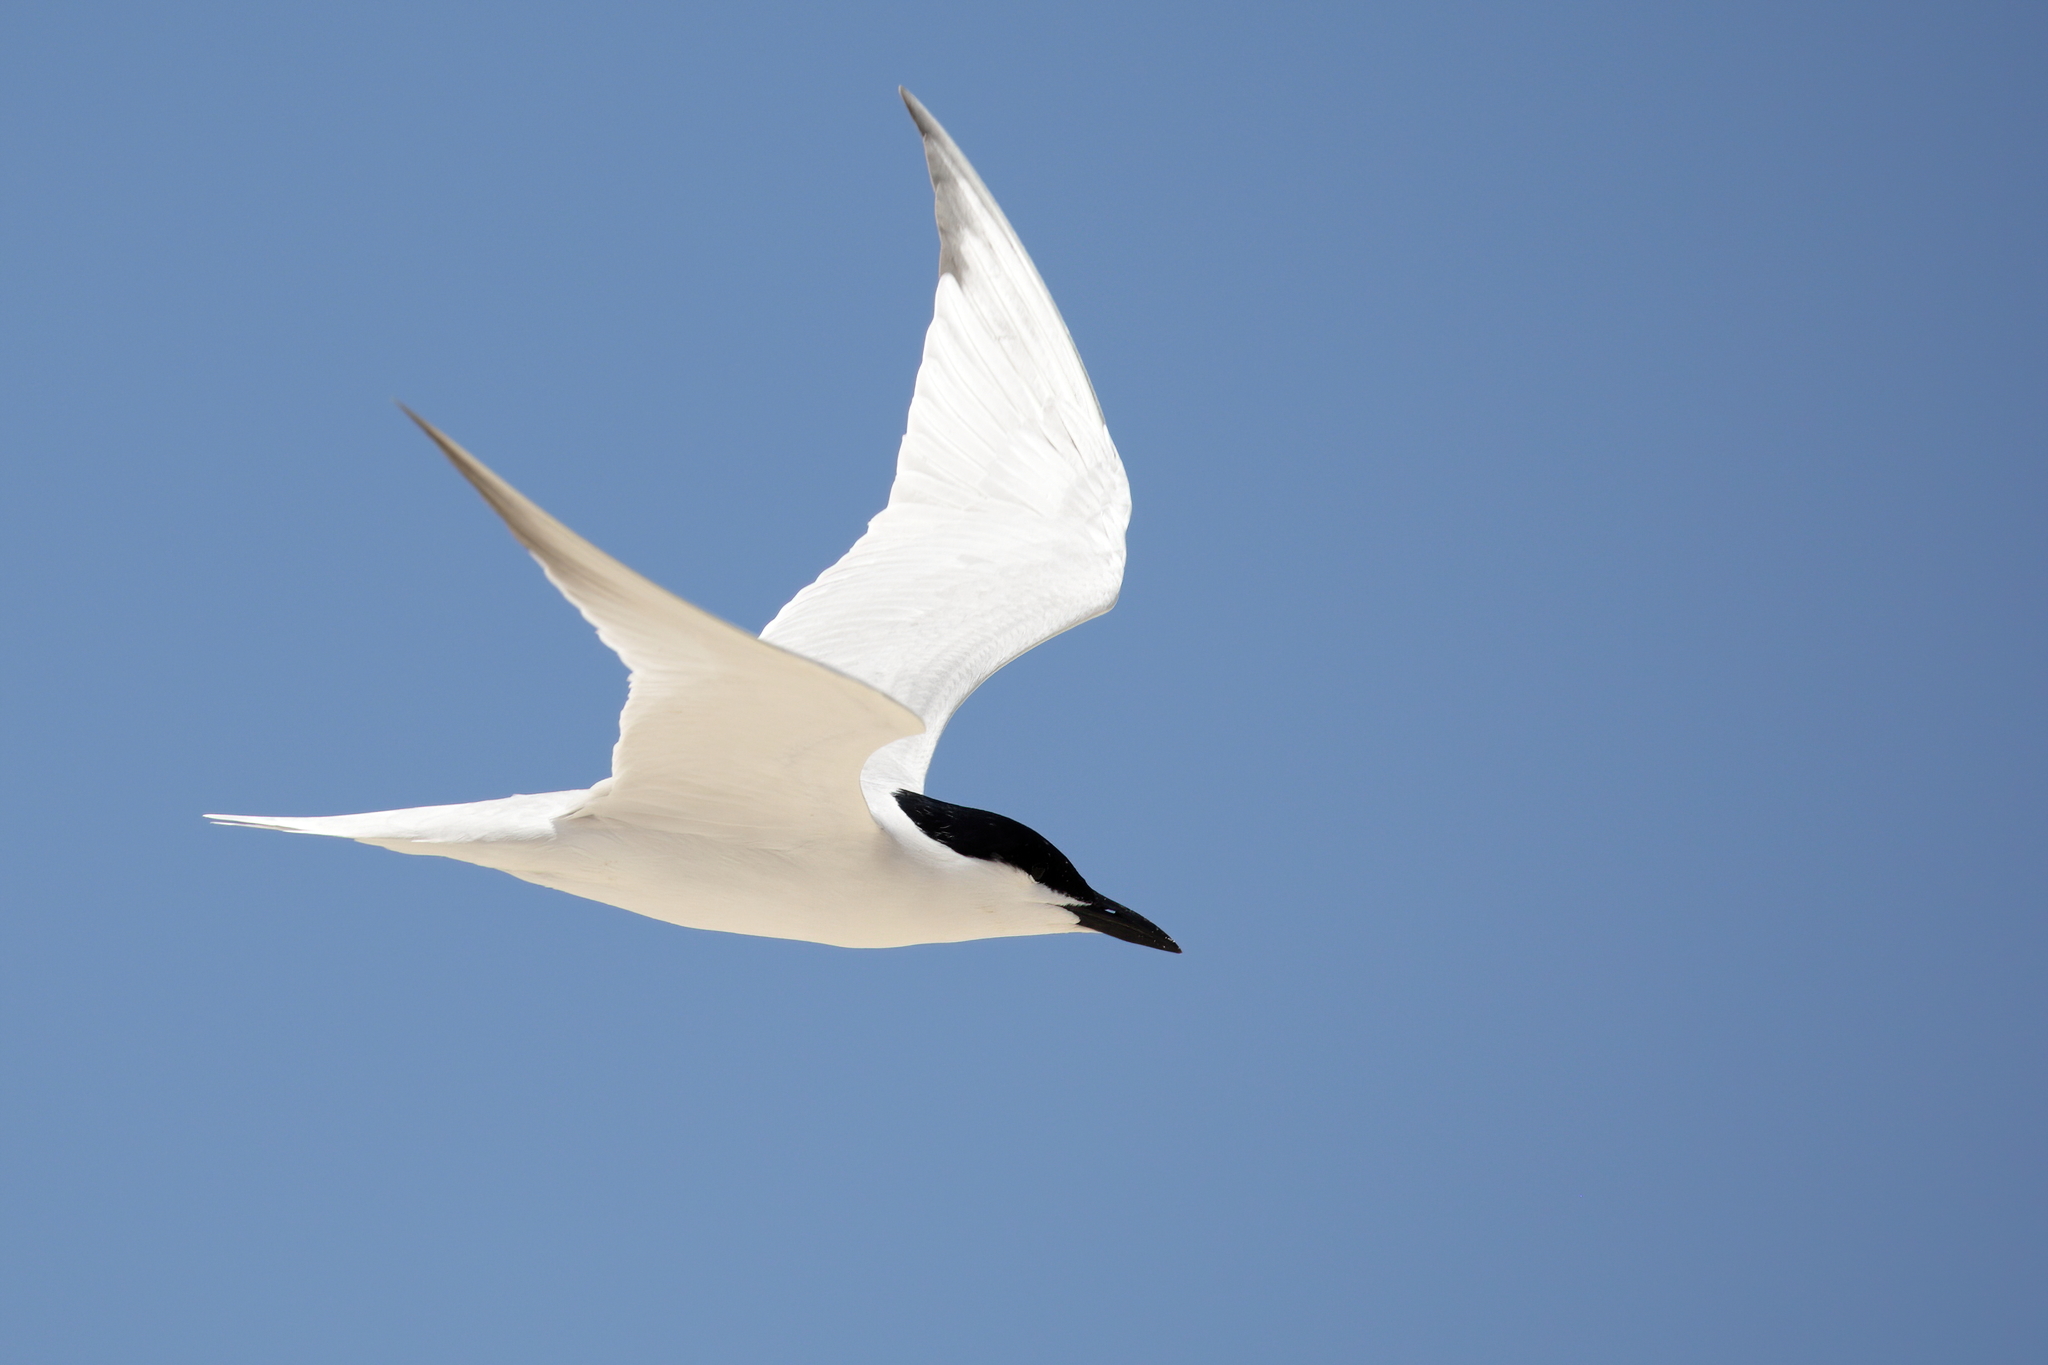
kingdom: Animalia
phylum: Chordata
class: Aves
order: Charadriiformes
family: Laridae
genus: Gelochelidon
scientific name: Gelochelidon nilotica
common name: Gull-billed tern
